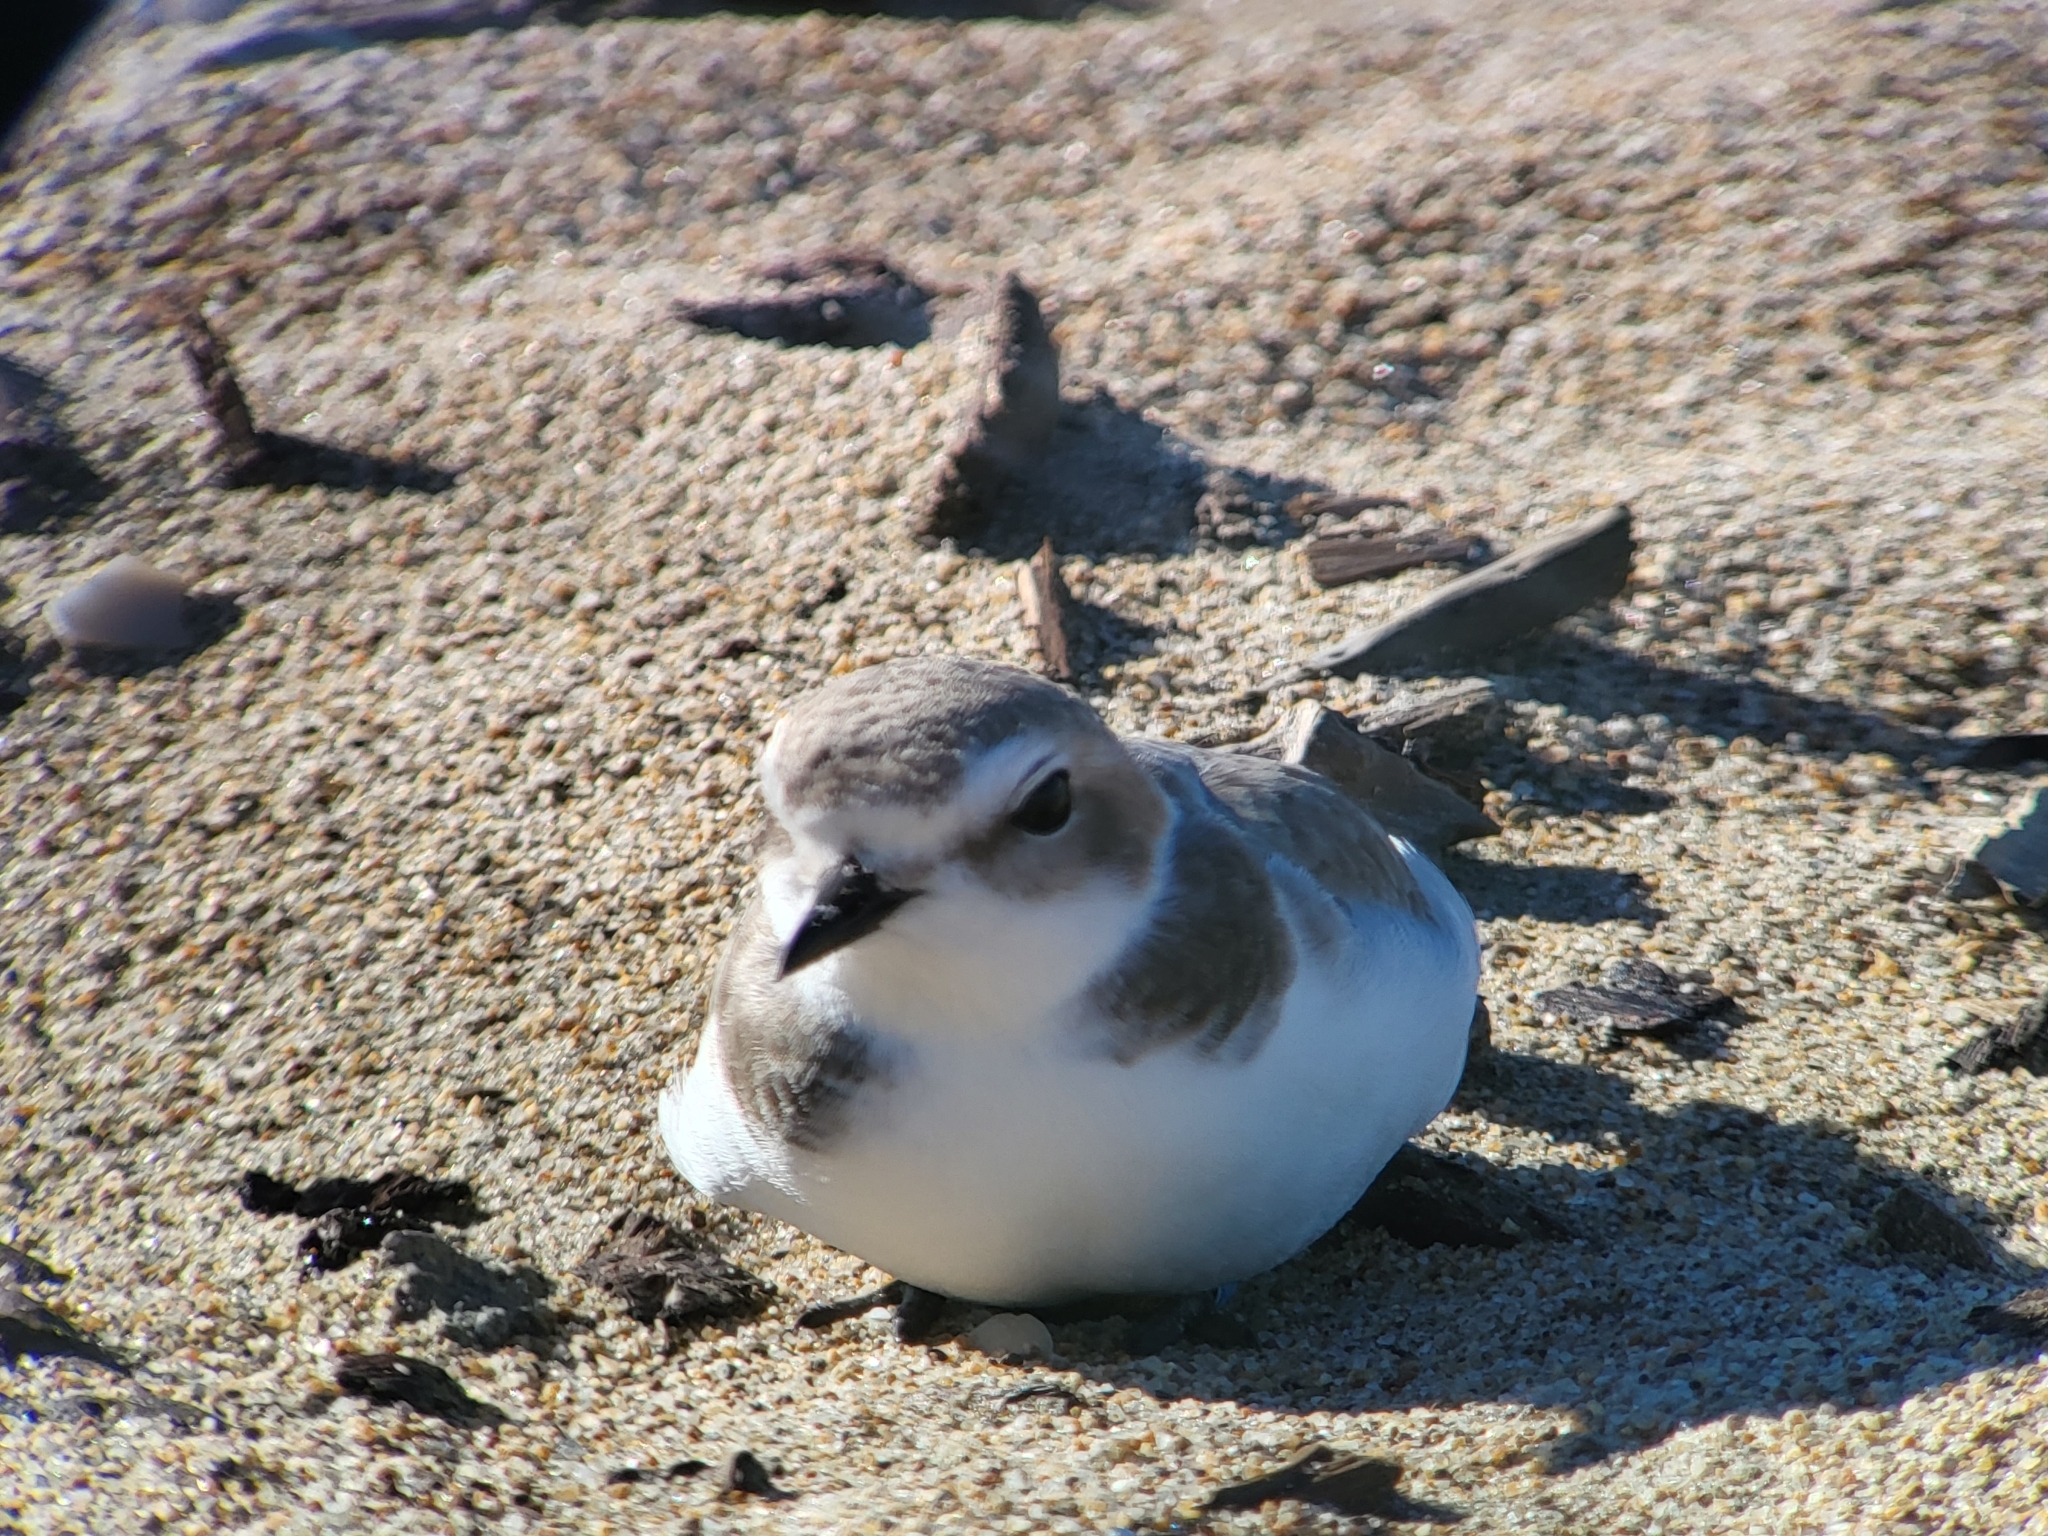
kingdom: Animalia
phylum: Chordata
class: Aves
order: Charadriiformes
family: Charadriidae
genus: Anarhynchus
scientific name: Anarhynchus
